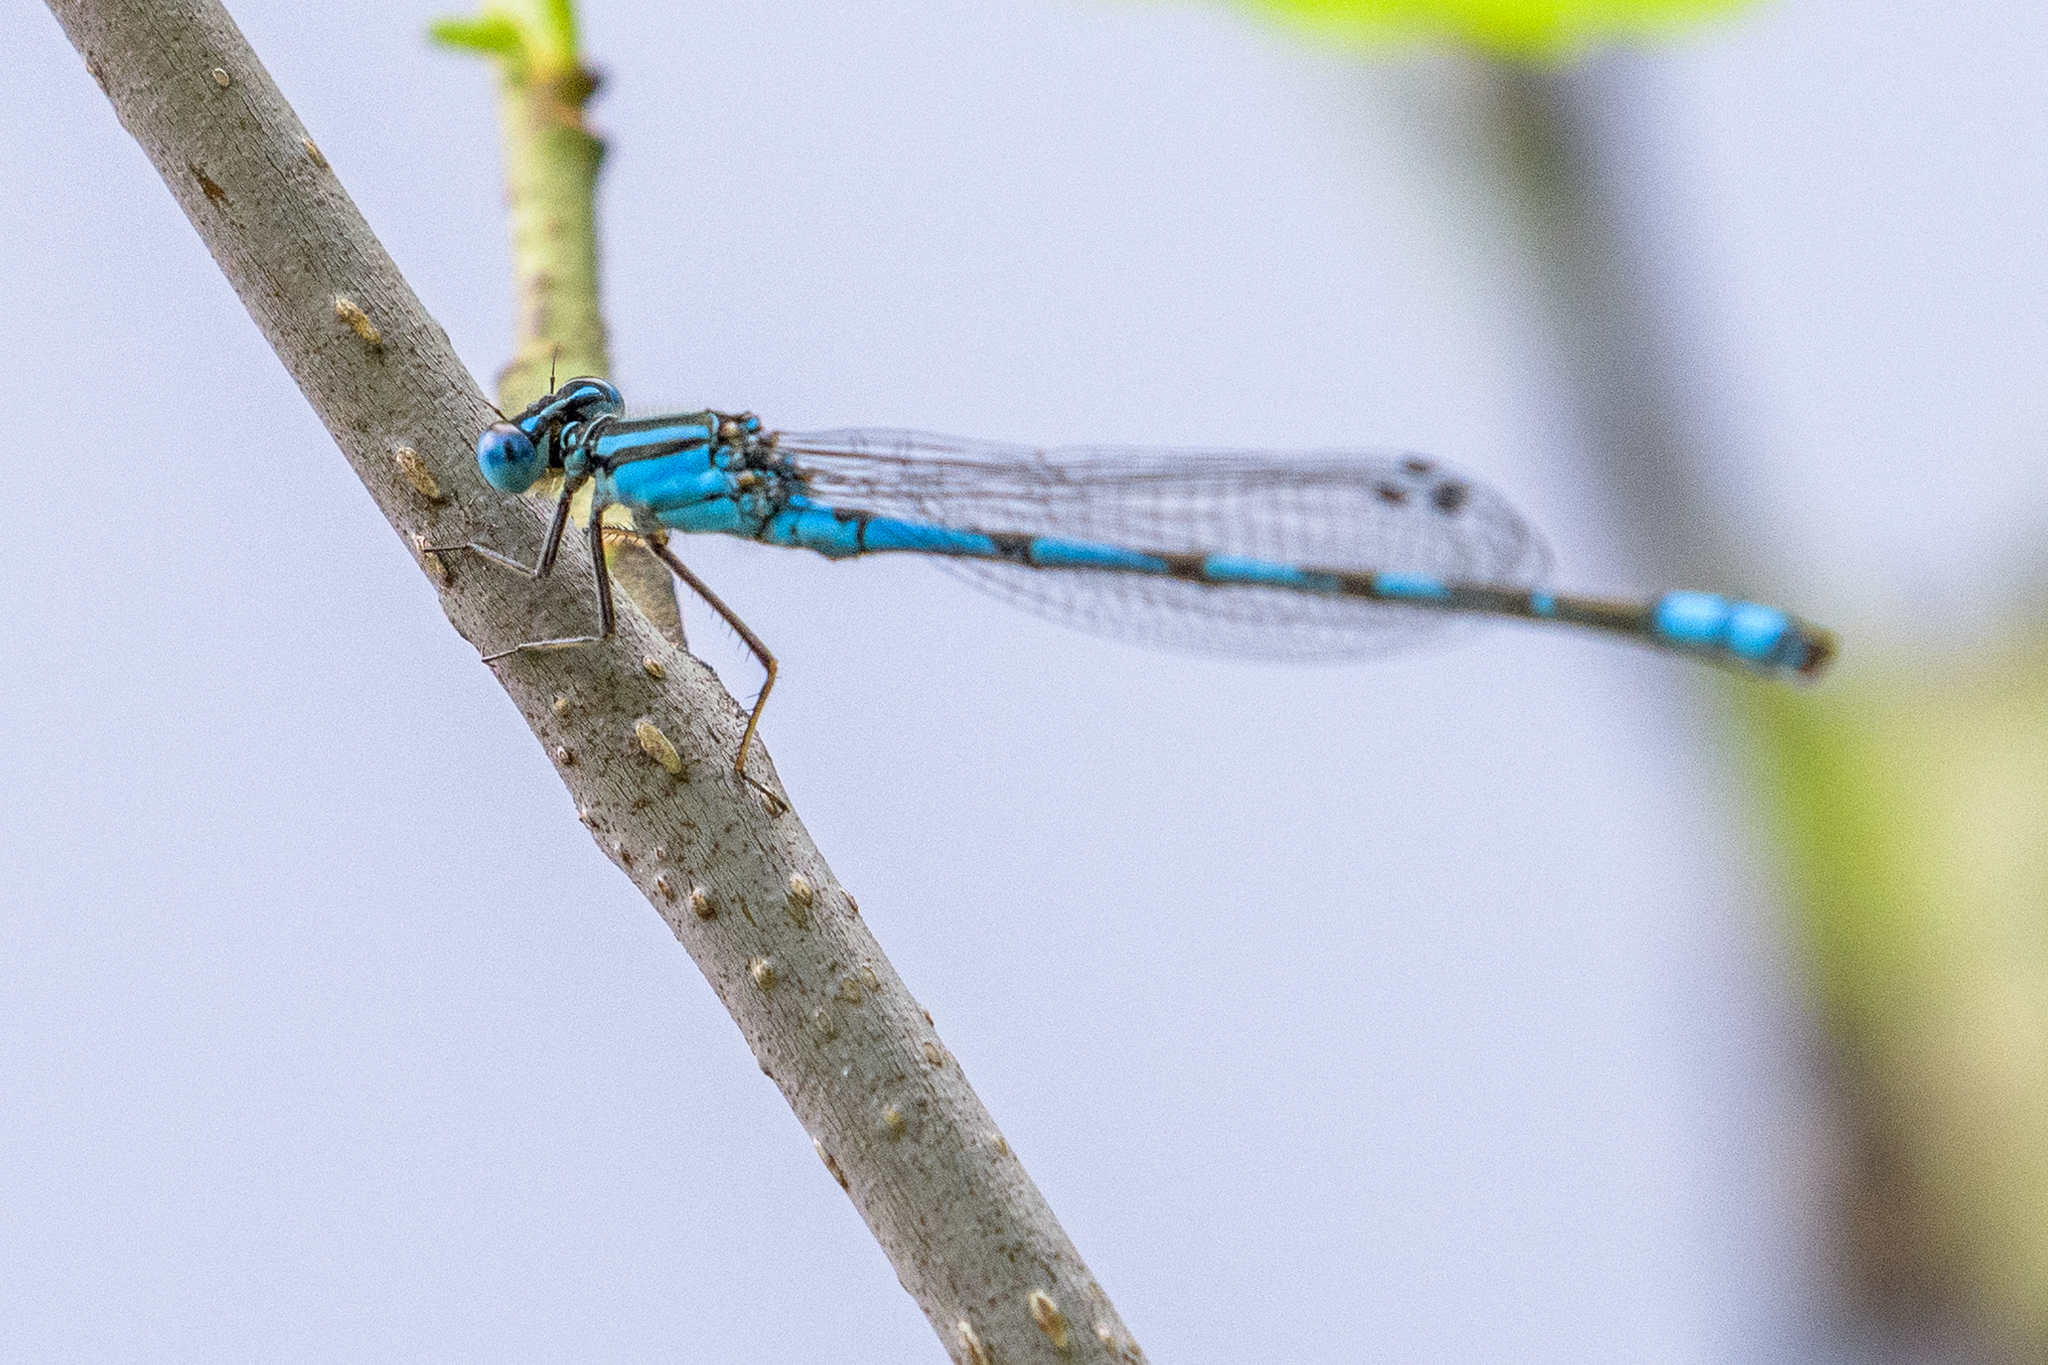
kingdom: Animalia
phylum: Arthropoda
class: Insecta
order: Odonata
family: Coenagrionidae
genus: Enallagma
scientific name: Enallagma durum
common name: Big bluet
